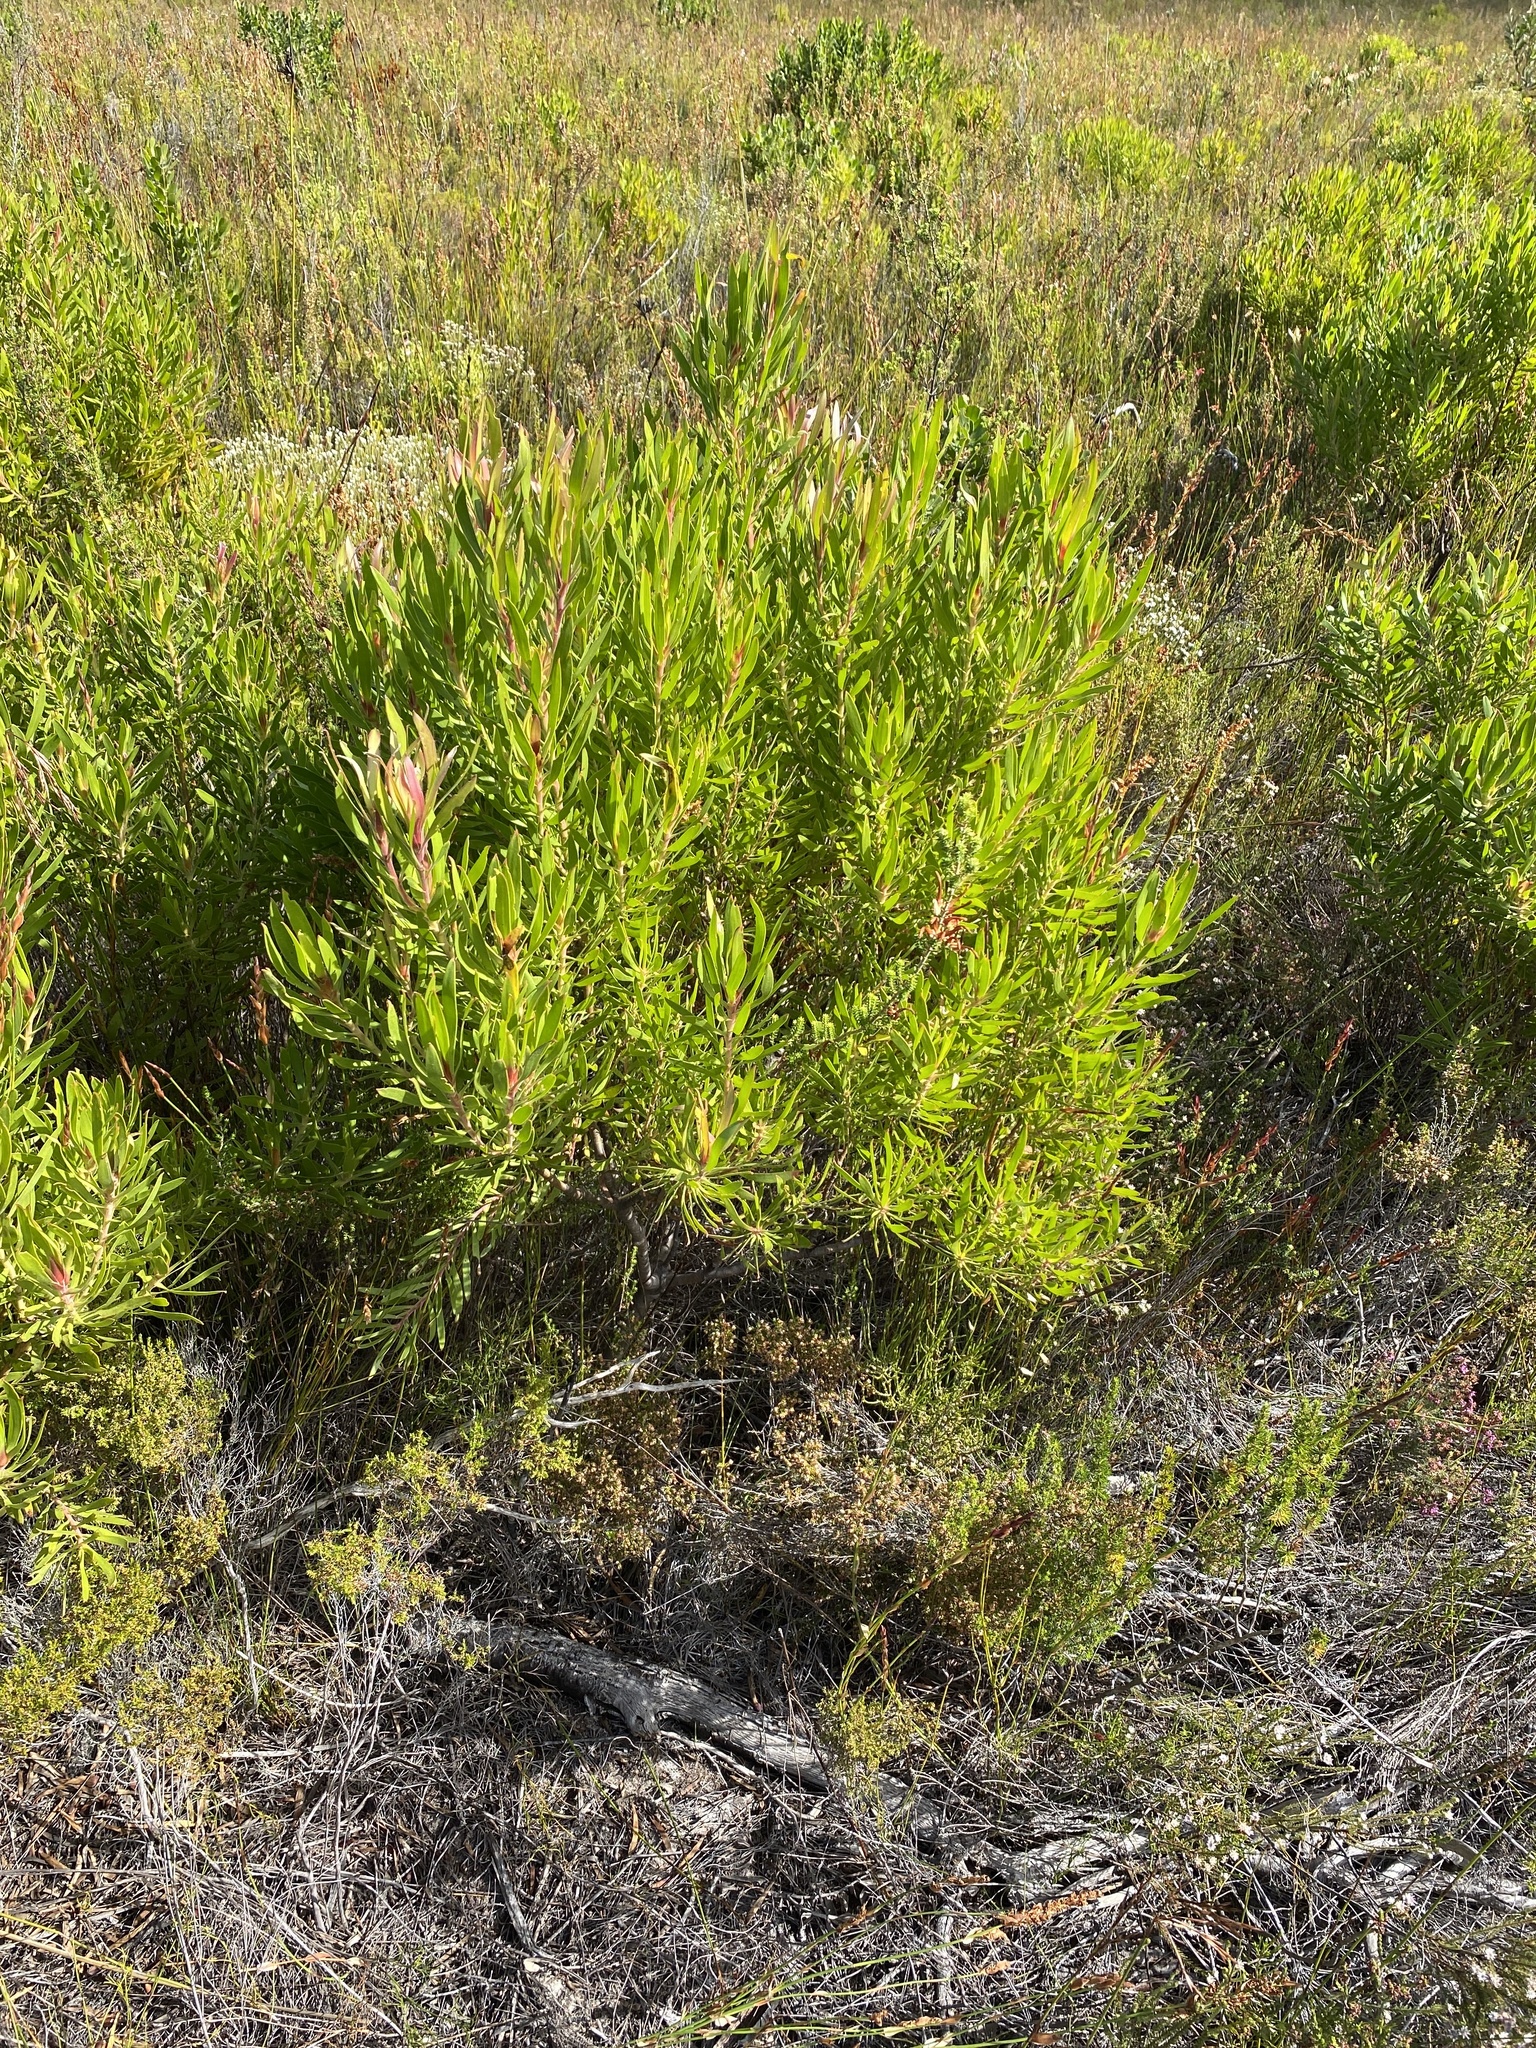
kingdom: Plantae
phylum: Tracheophyta
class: Magnoliopsida
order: Proteales
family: Proteaceae
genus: Leucadendron
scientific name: Leucadendron meridianum
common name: Limestone conebush
